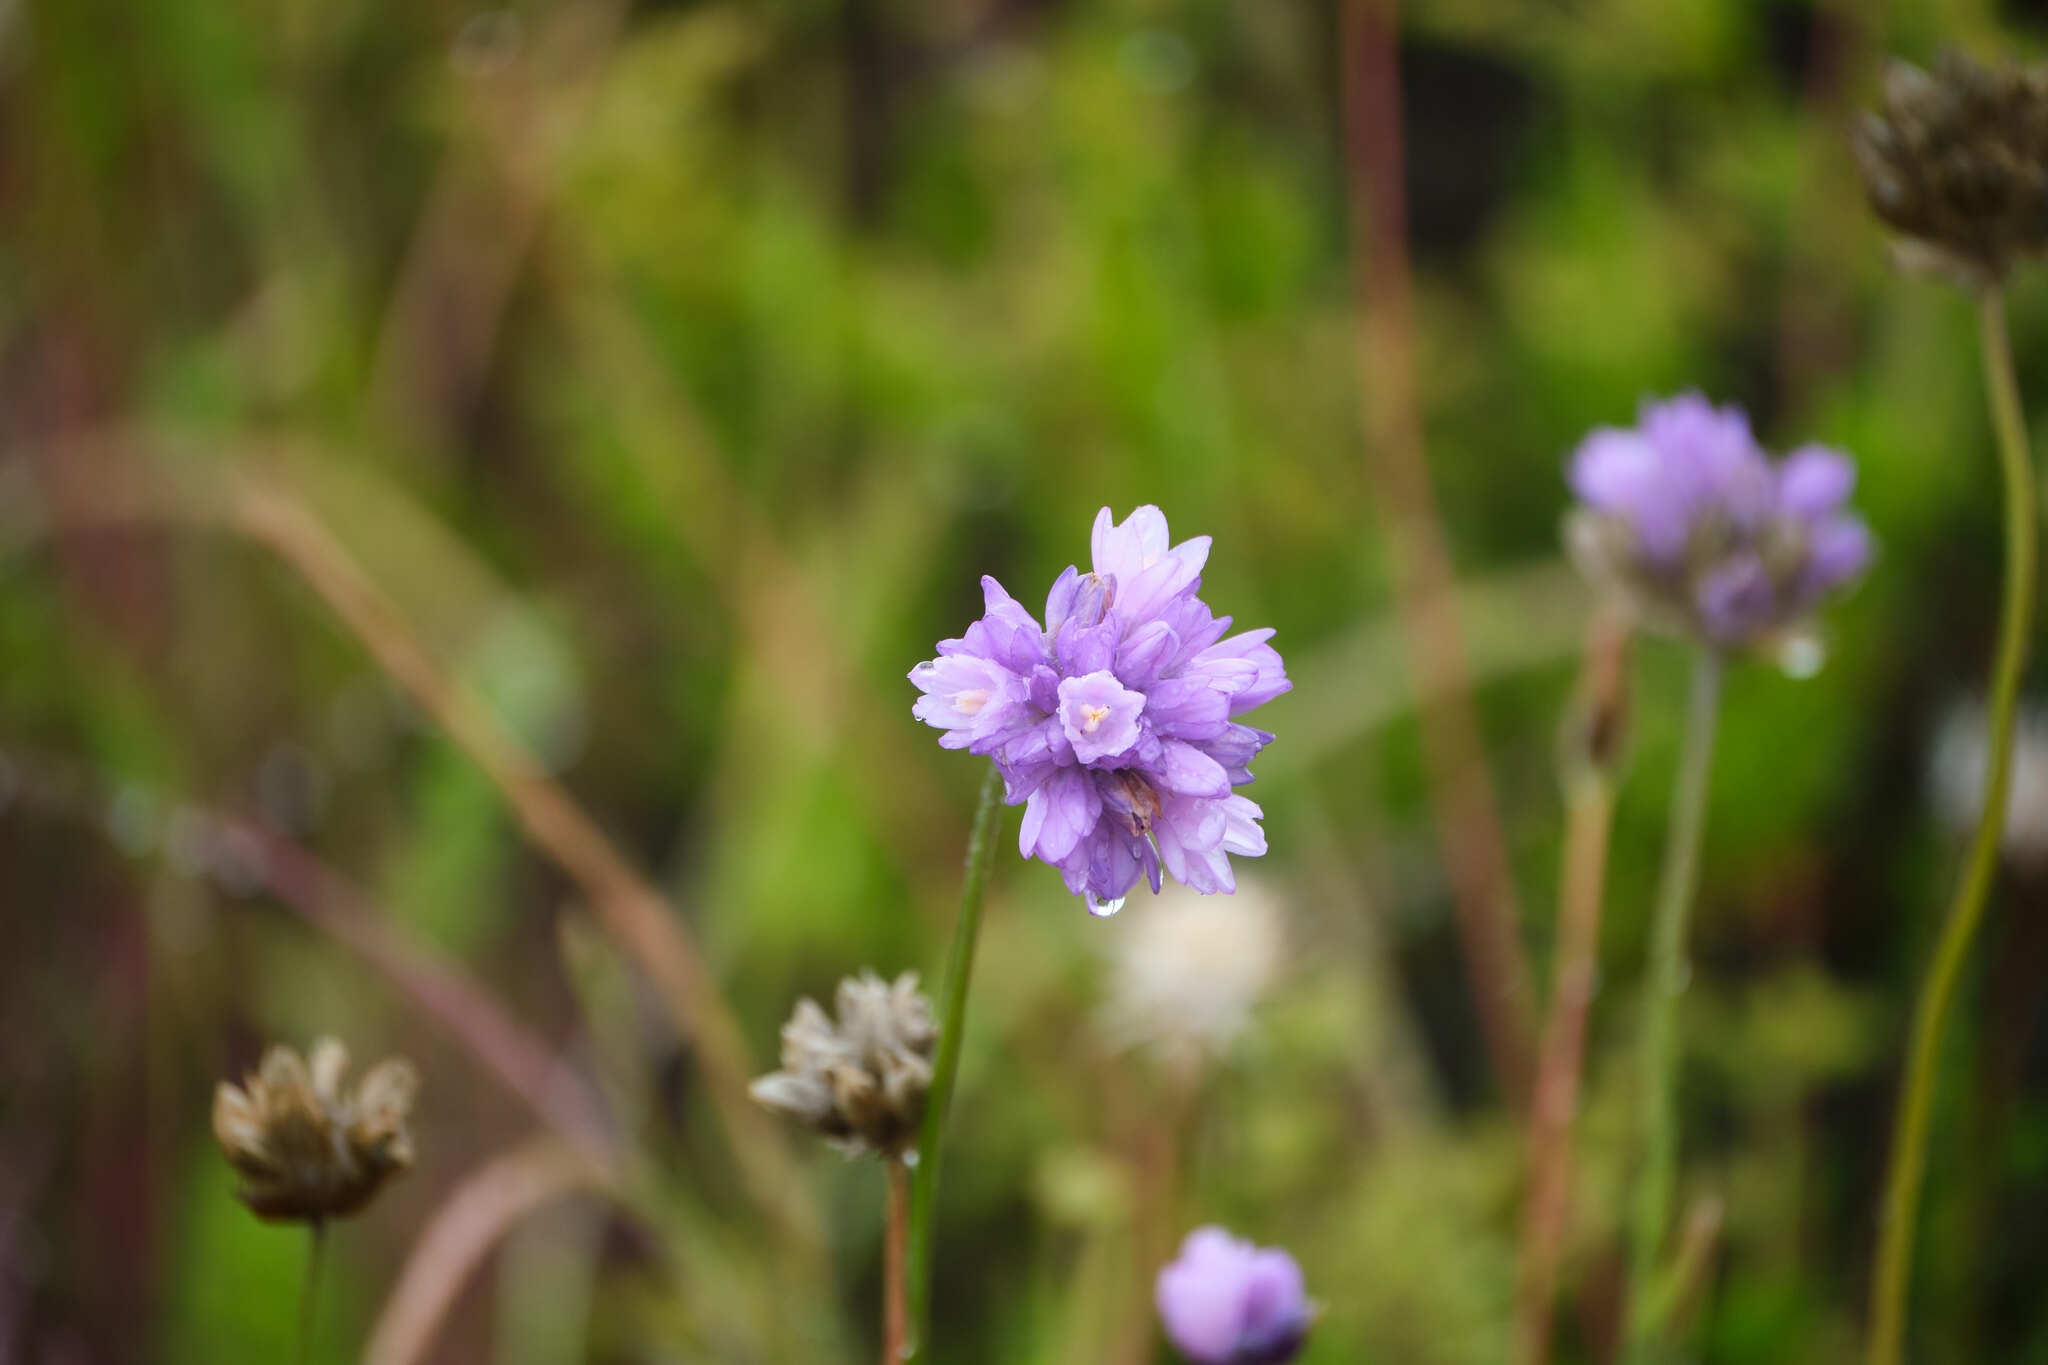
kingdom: Plantae
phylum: Tracheophyta
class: Liliopsida
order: Asparagales
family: Asparagaceae
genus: Dipterostemon
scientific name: Dipterostemon capitatus
